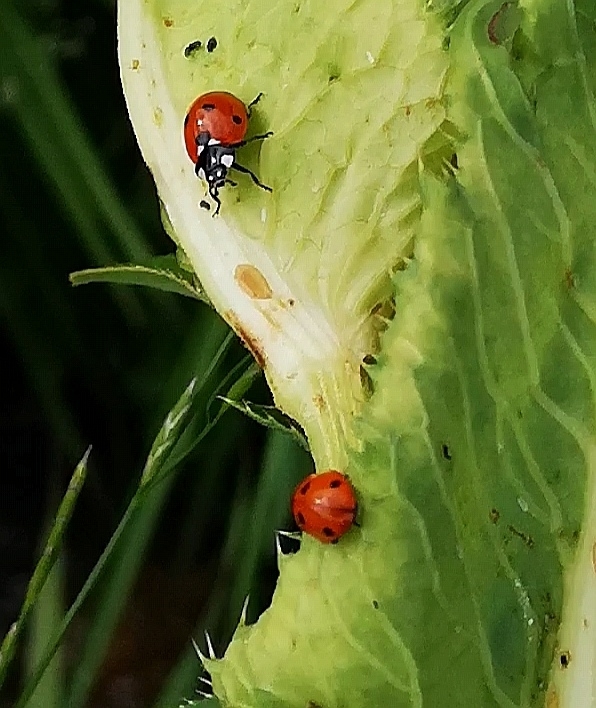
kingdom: Animalia
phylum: Arthropoda
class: Insecta
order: Coleoptera
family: Coccinellidae
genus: Coccinella
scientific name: Coccinella septempunctata
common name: Sevenspotted lady beetle
